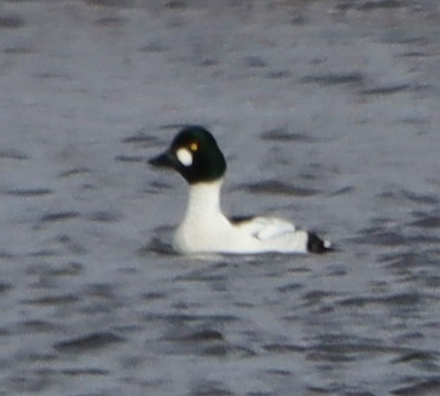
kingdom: Animalia
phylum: Chordata
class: Aves
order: Anseriformes
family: Anatidae
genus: Bucephala
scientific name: Bucephala clangula
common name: Common goldeneye
